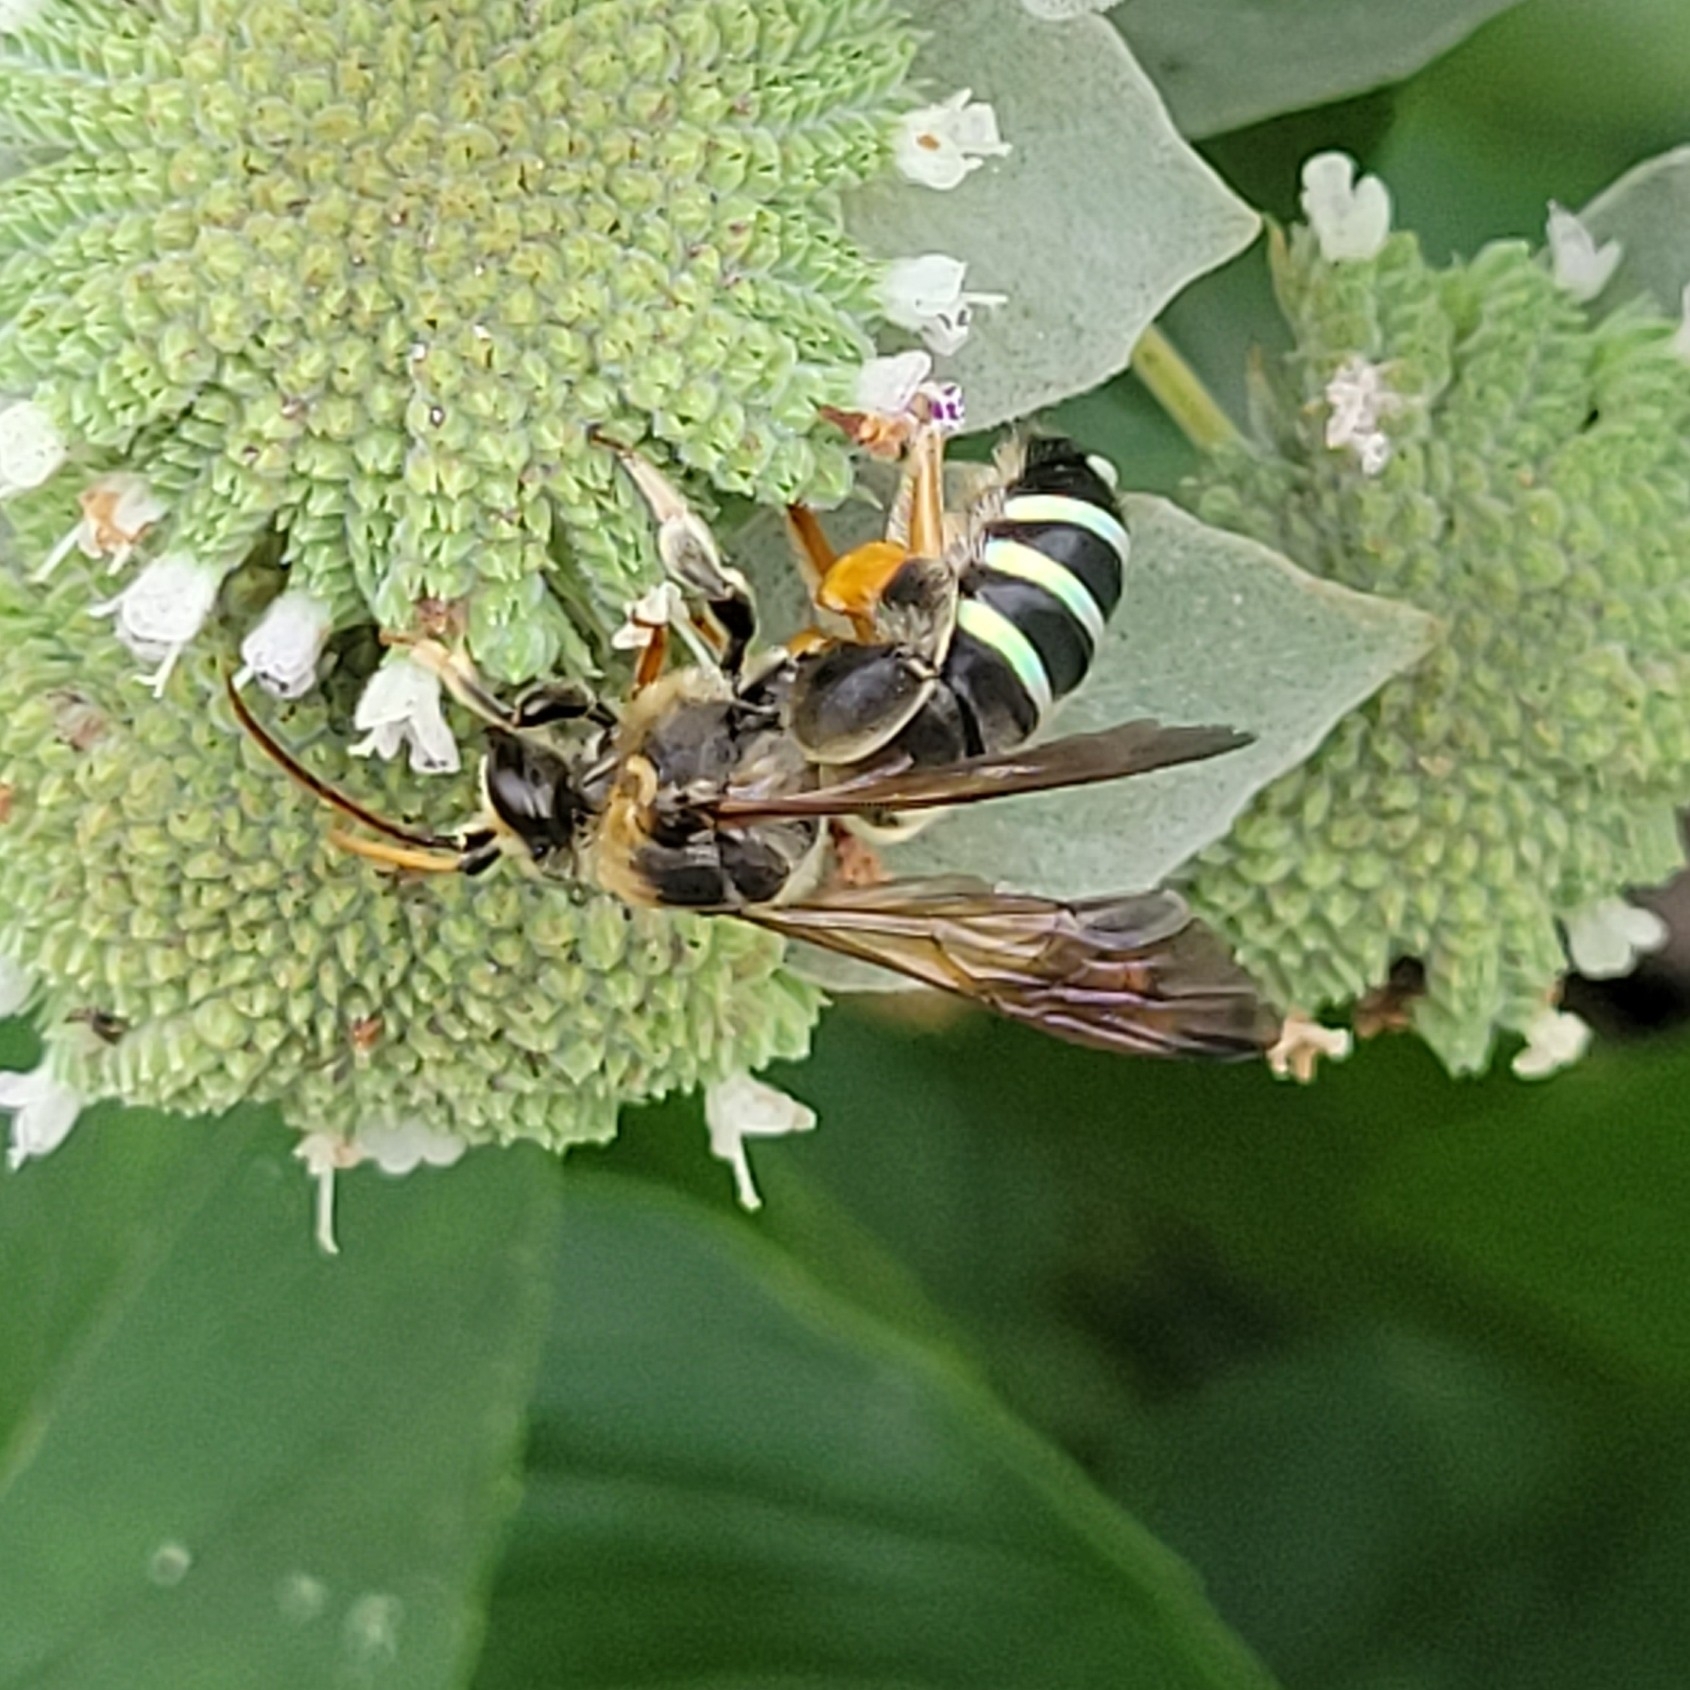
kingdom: Animalia
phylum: Arthropoda
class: Insecta
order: Hymenoptera
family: Halictidae
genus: Nomia
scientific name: Nomia nortoni
